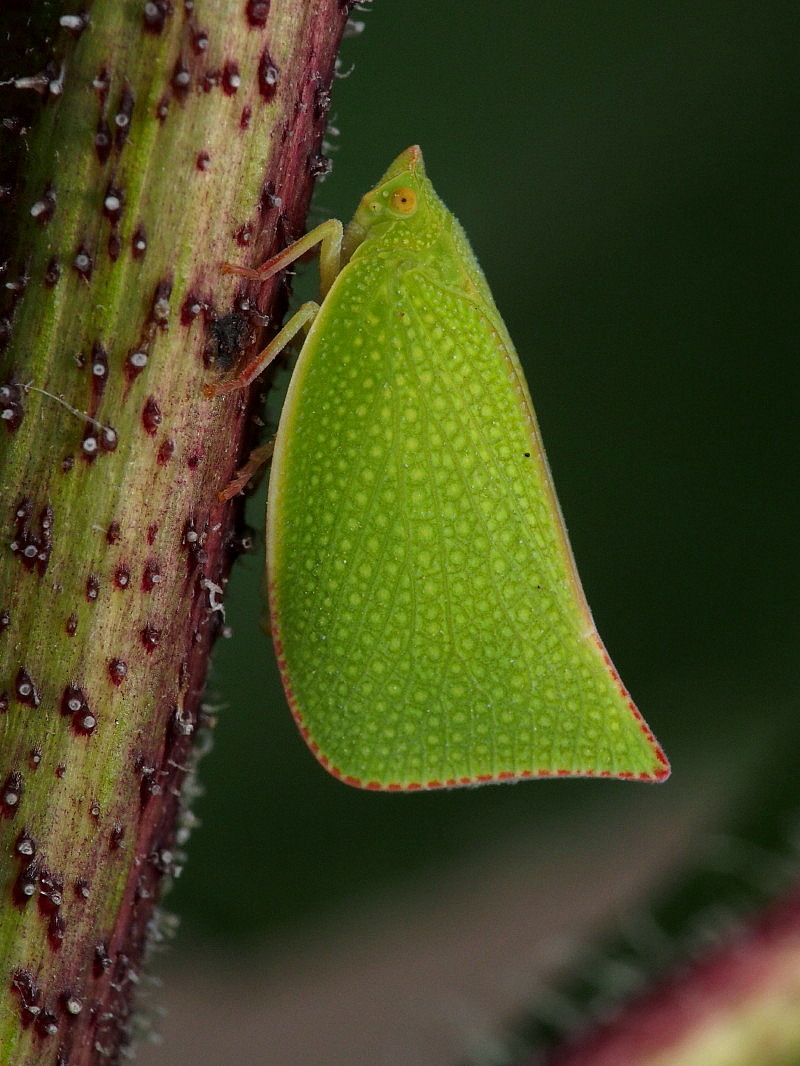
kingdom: Animalia
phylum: Arthropoda
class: Insecta
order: Hemiptera
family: Flatidae
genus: Siphanta
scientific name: Siphanta acuta
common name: Torpedo bug
